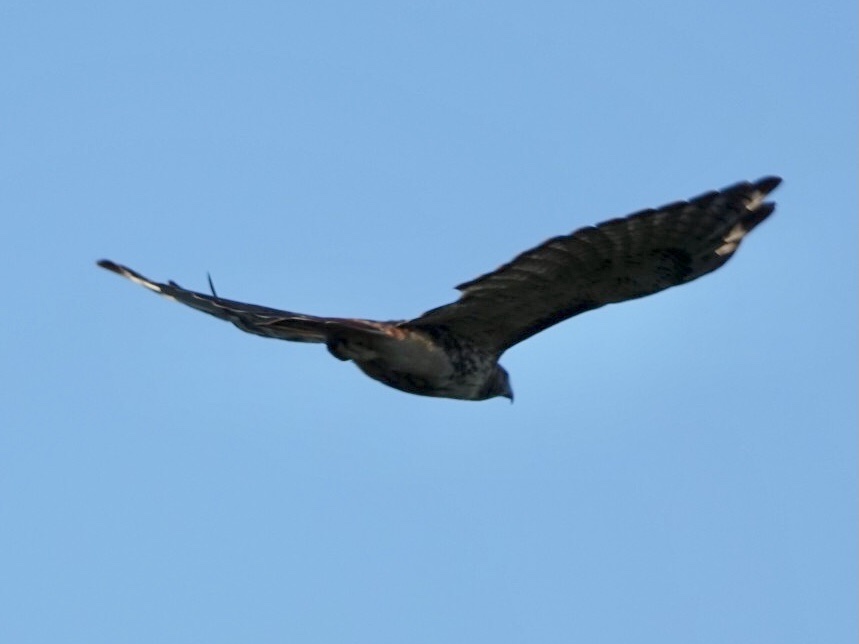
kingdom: Animalia
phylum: Chordata
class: Aves
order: Accipitriformes
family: Accipitridae
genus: Buteo
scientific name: Buteo jamaicensis
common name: Red-tailed hawk
